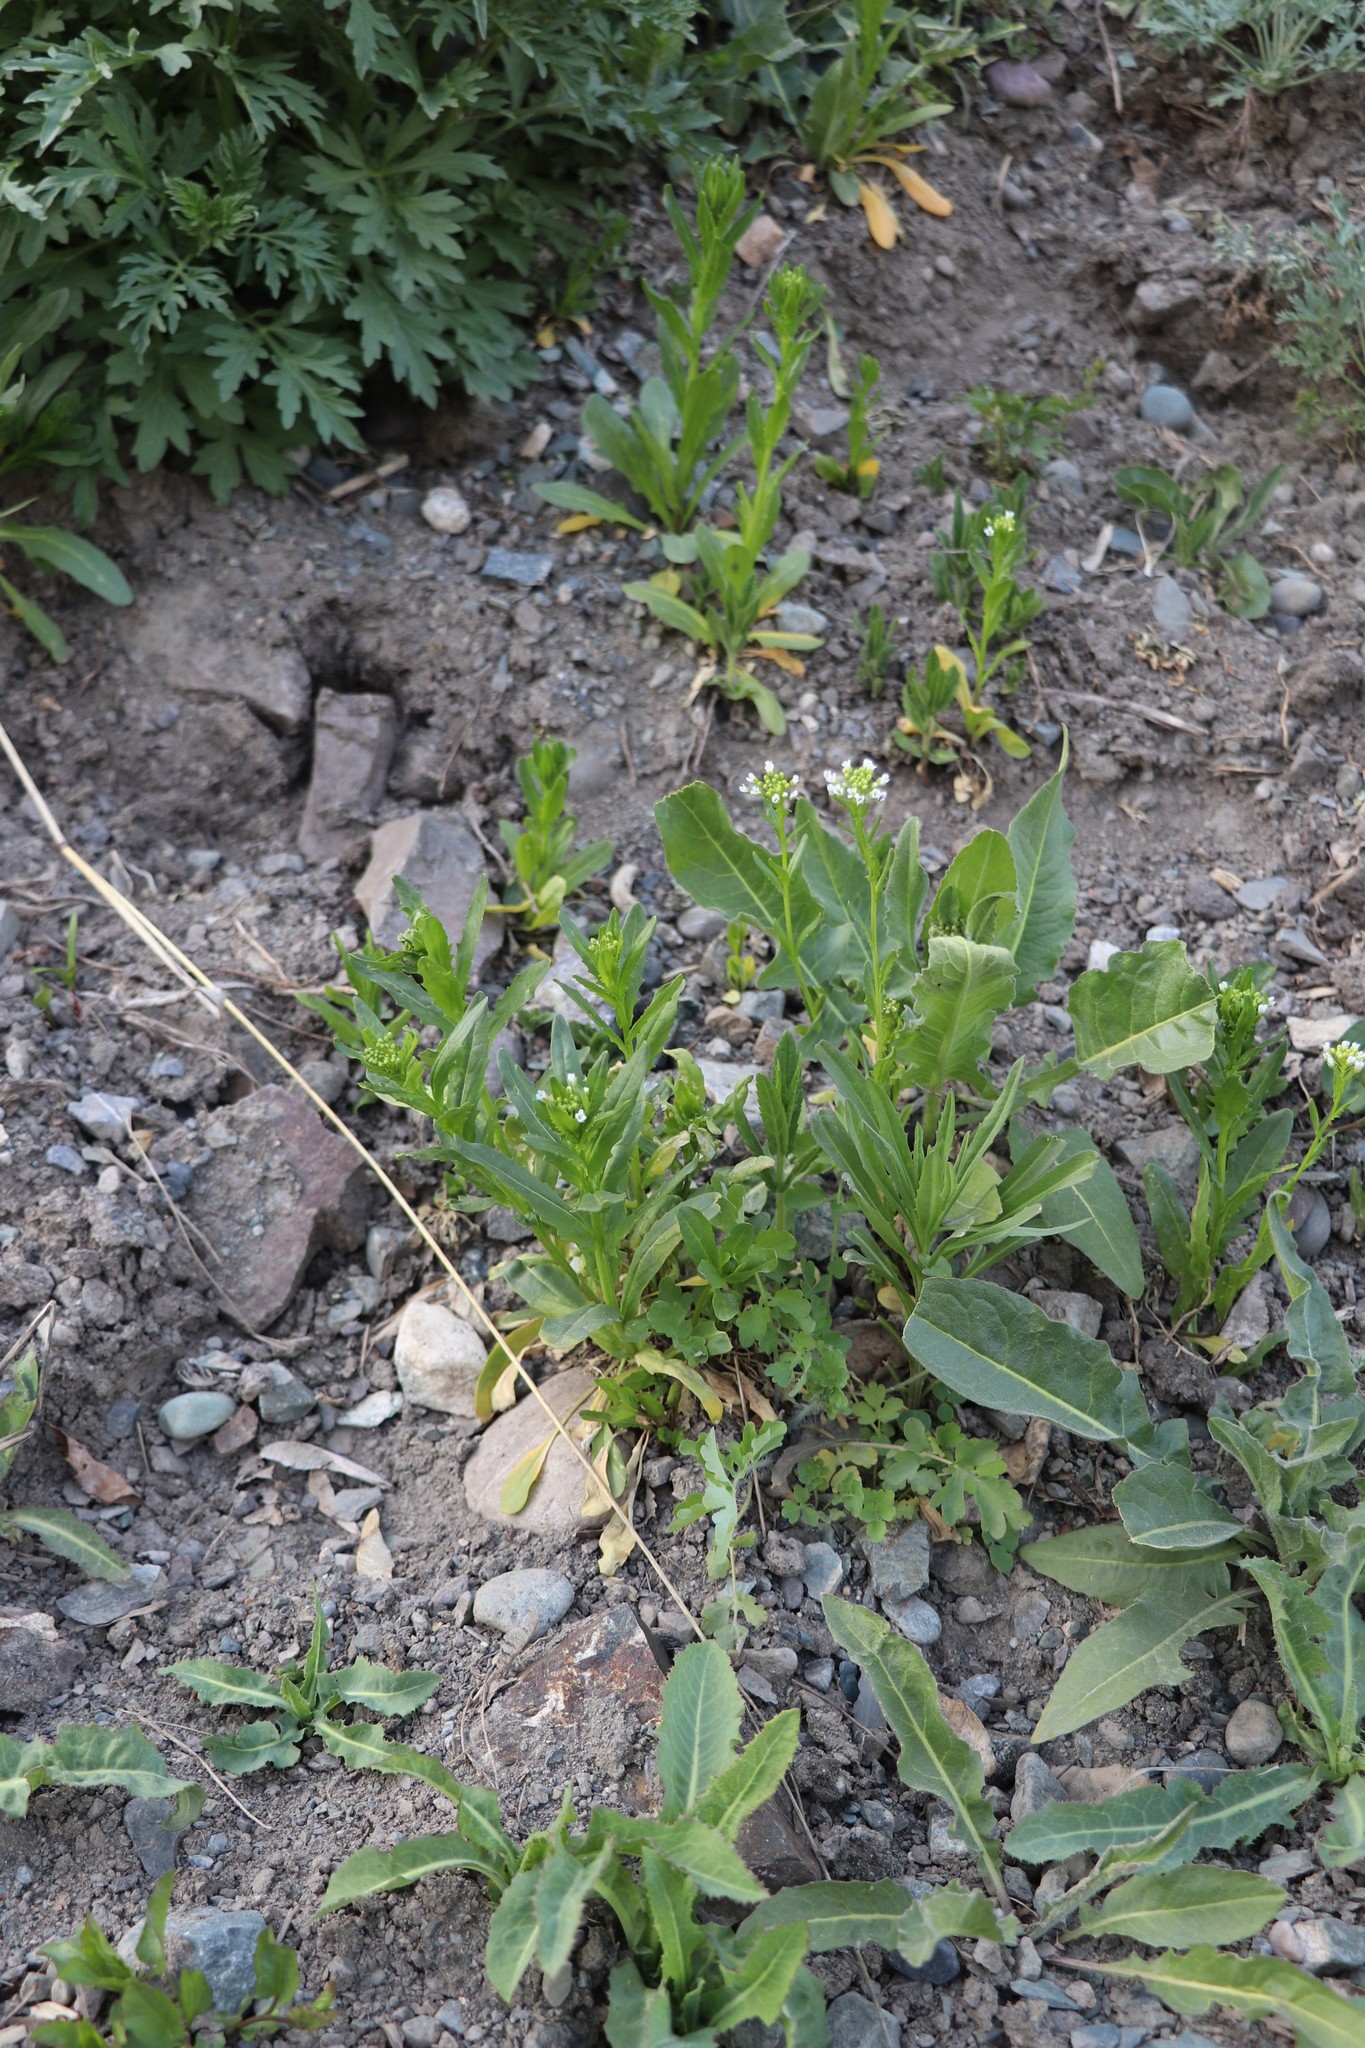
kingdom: Plantae
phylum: Tracheophyta
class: Magnoliopsida
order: Brassicales
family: Brassicaceae
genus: Thlaspi
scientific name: Thlaspi arvense
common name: Field pennycress
